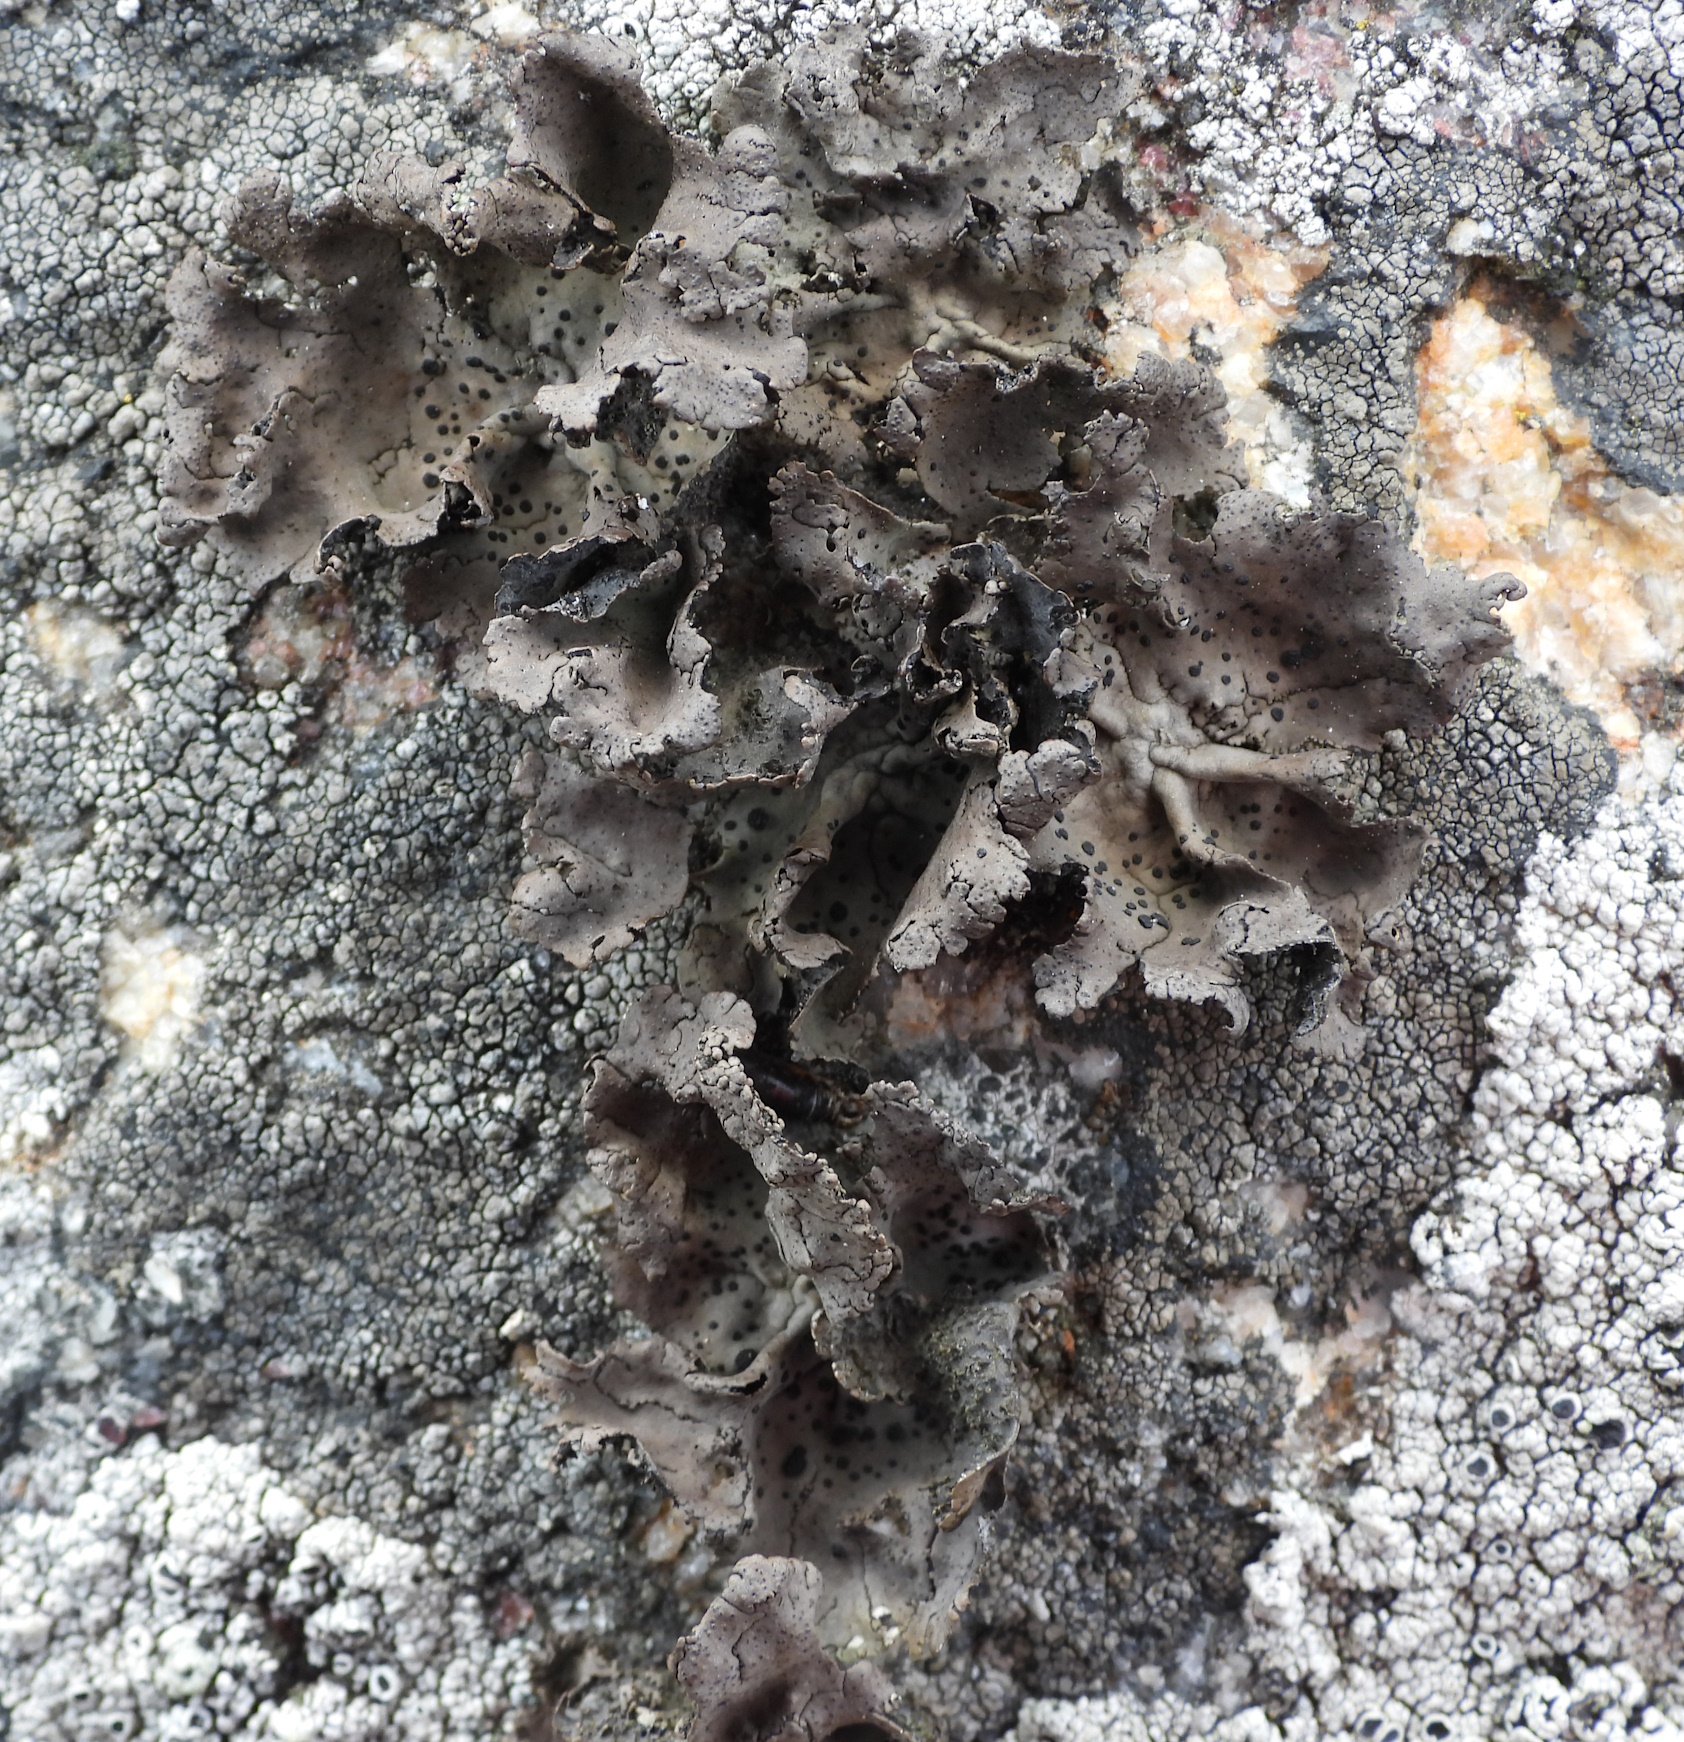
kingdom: Fungi
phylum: Ascomycota
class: Lecanoromycetes
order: Umbilicariales
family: Umbilicariaceae
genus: Umbilicaria
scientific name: Umbilicaria torrefacta
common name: Punctured rock tripe lichen
